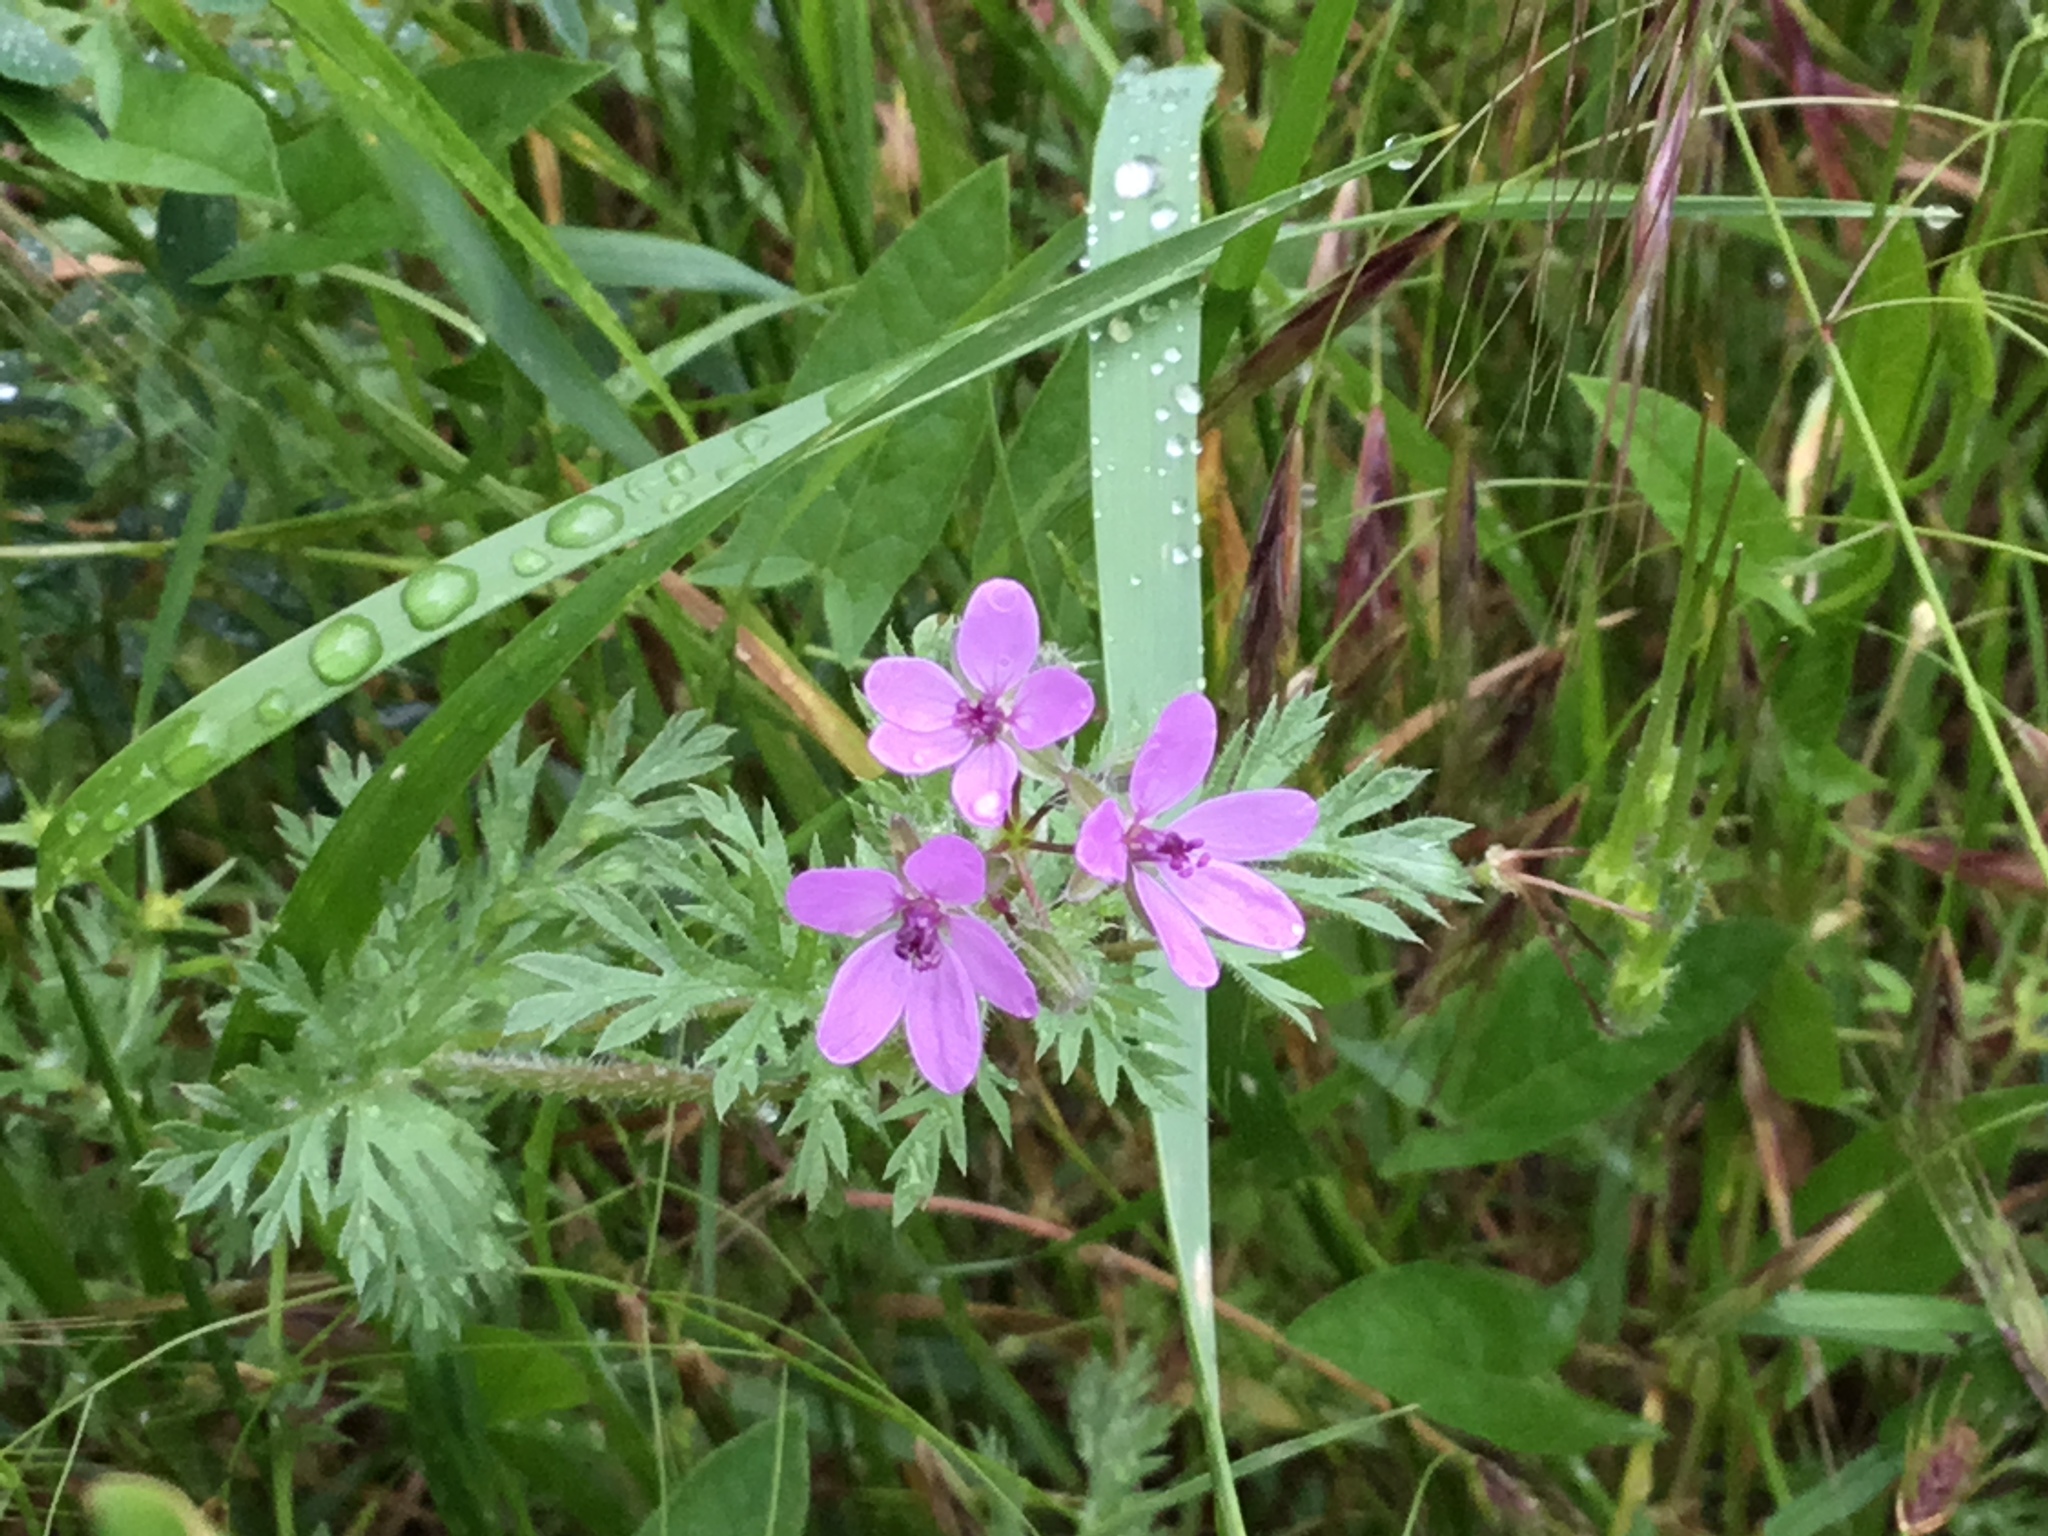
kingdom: Plantae
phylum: Tracheophyta
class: Magnoliopsida
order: Geraniales
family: Geraniaceae
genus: Erodium
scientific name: Erodium cicutarium
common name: Common stork's-bill
